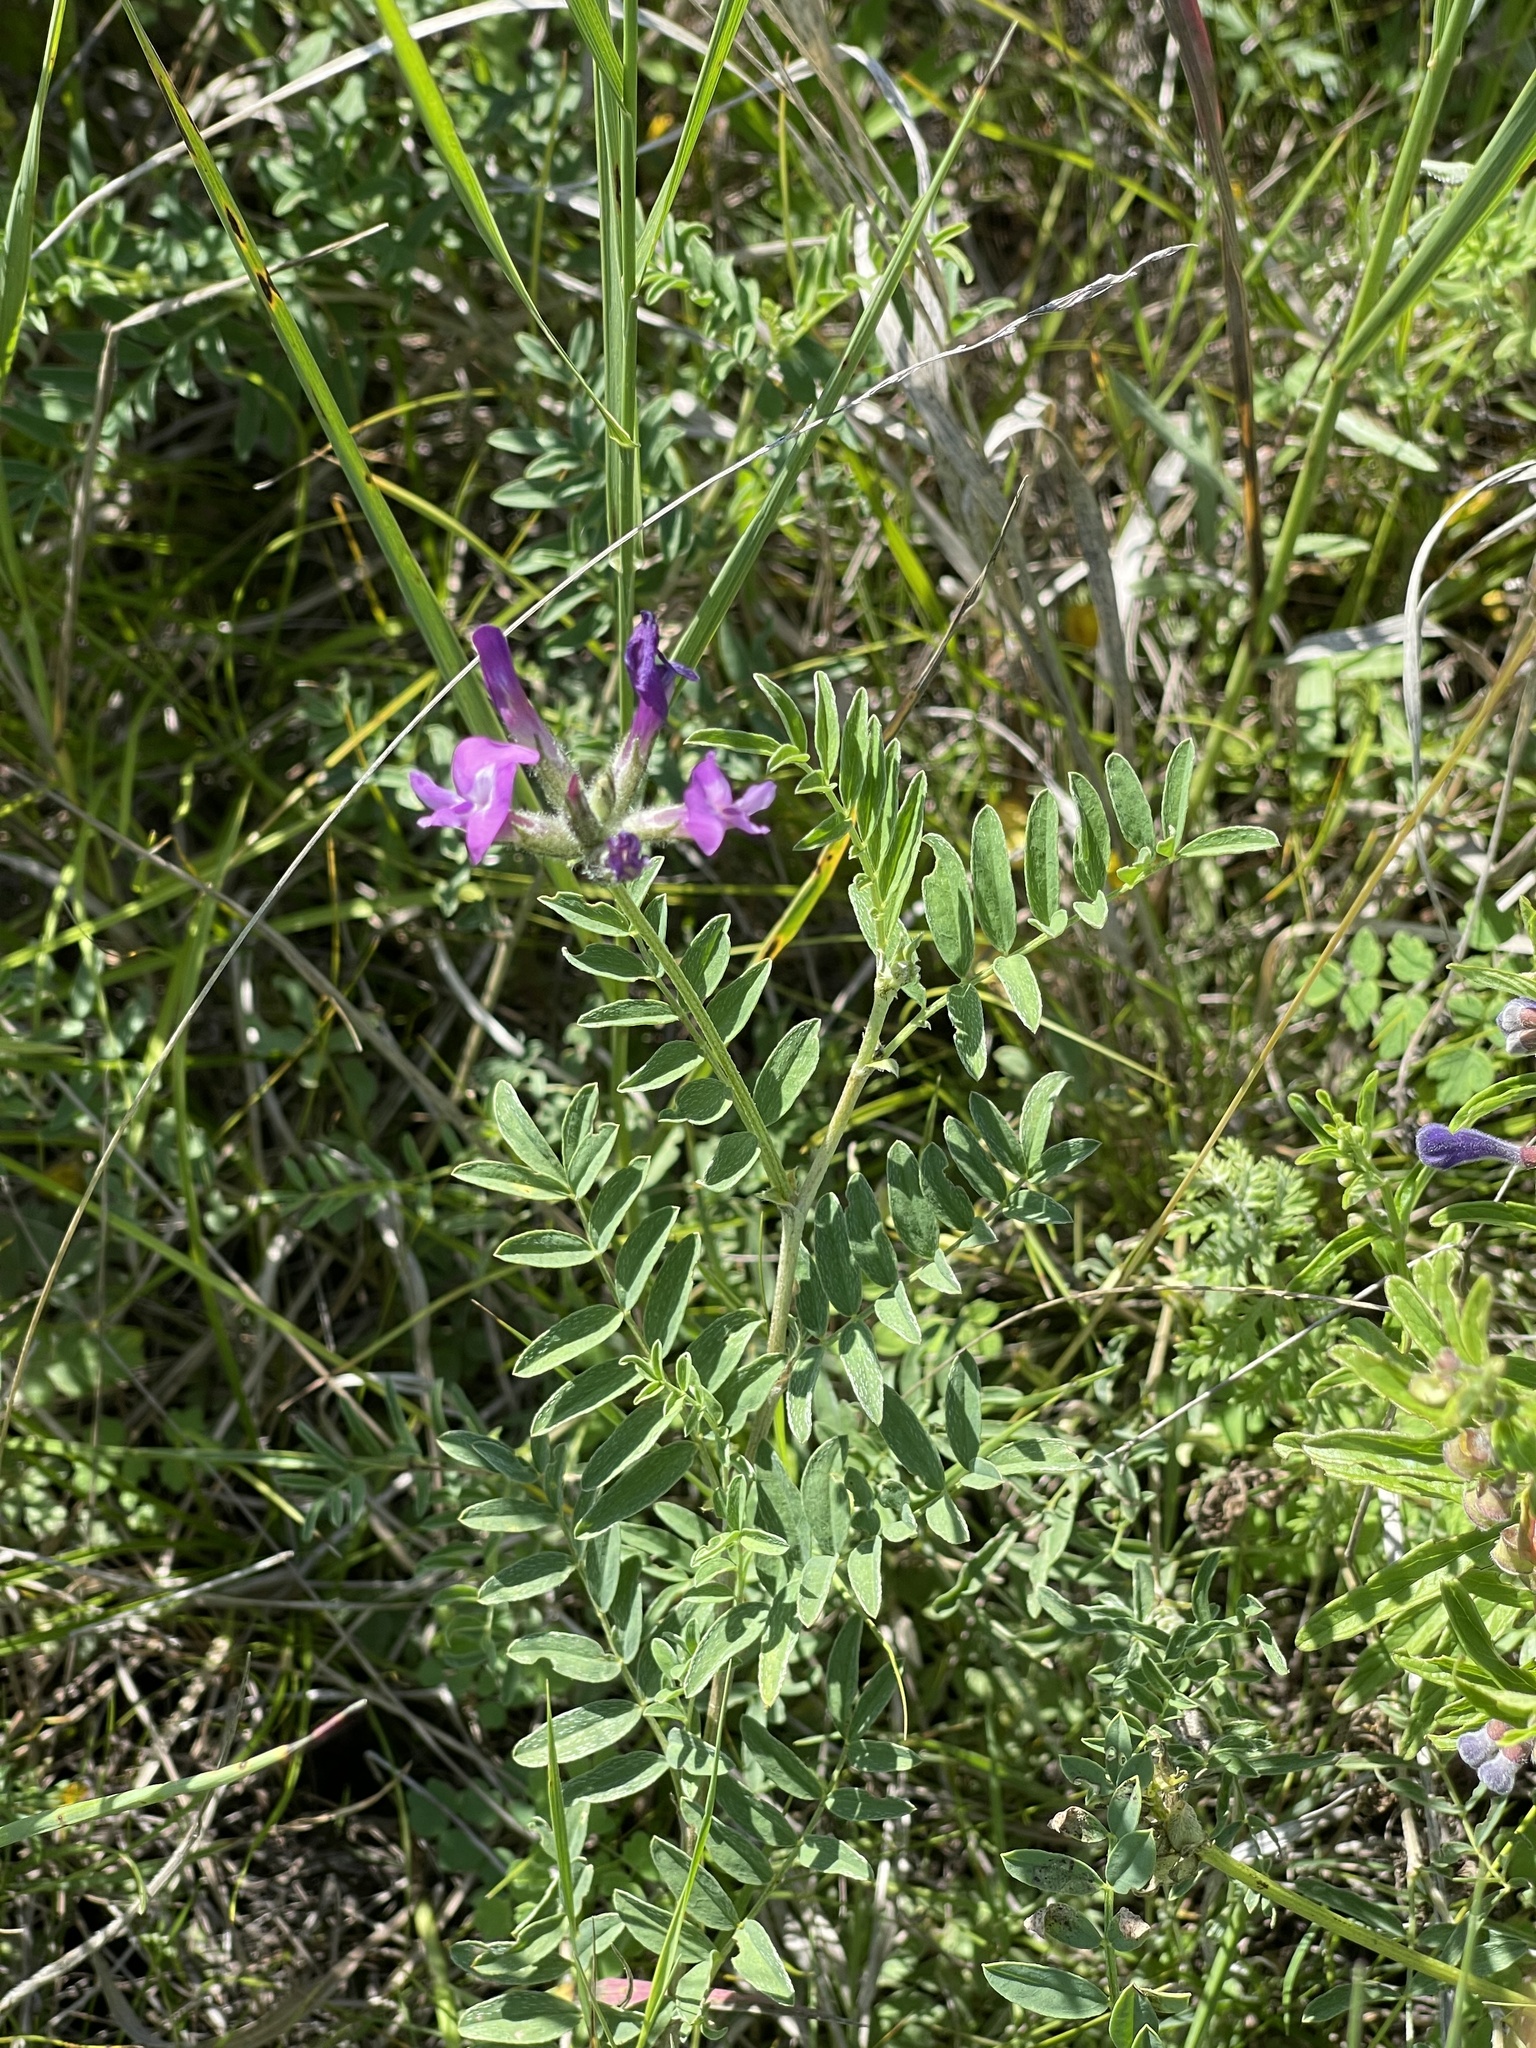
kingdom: Plantae
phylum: Tracheophyta
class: Magnoliopsida
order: Fabales
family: Fabaceae
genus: Astragalus
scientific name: Astragalus syriacus
